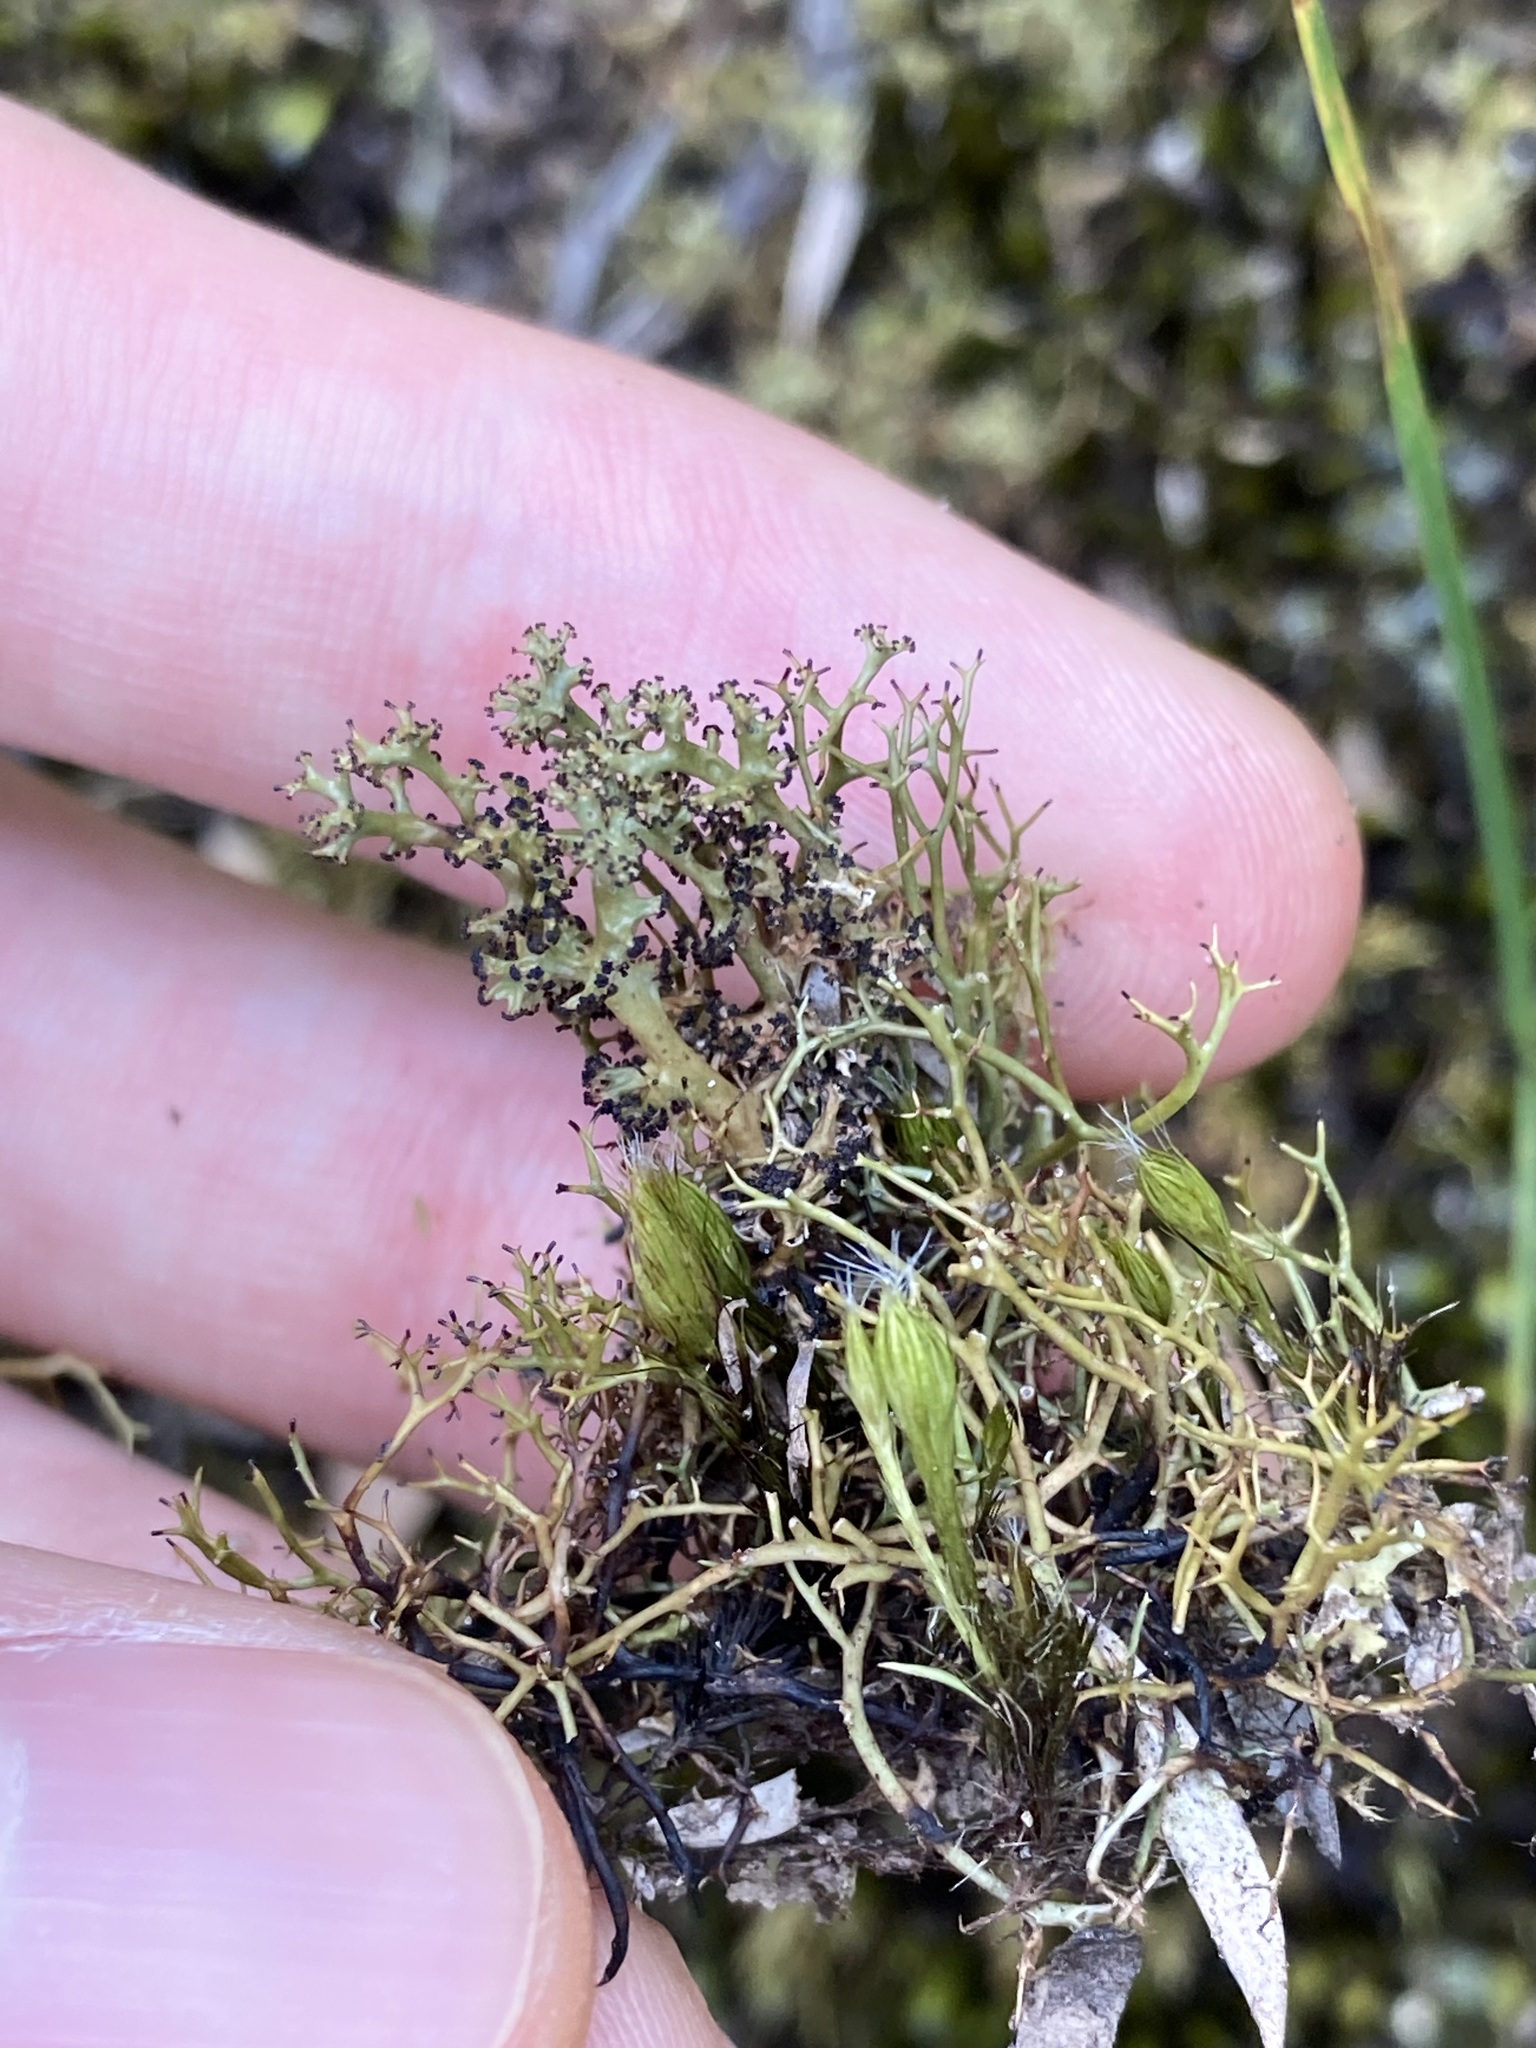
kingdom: Fungi
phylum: Ascomycota
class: Lecanoromycetes
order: Lecanorales
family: Cladoniaceae
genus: Cladia
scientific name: Cladia aggregata
